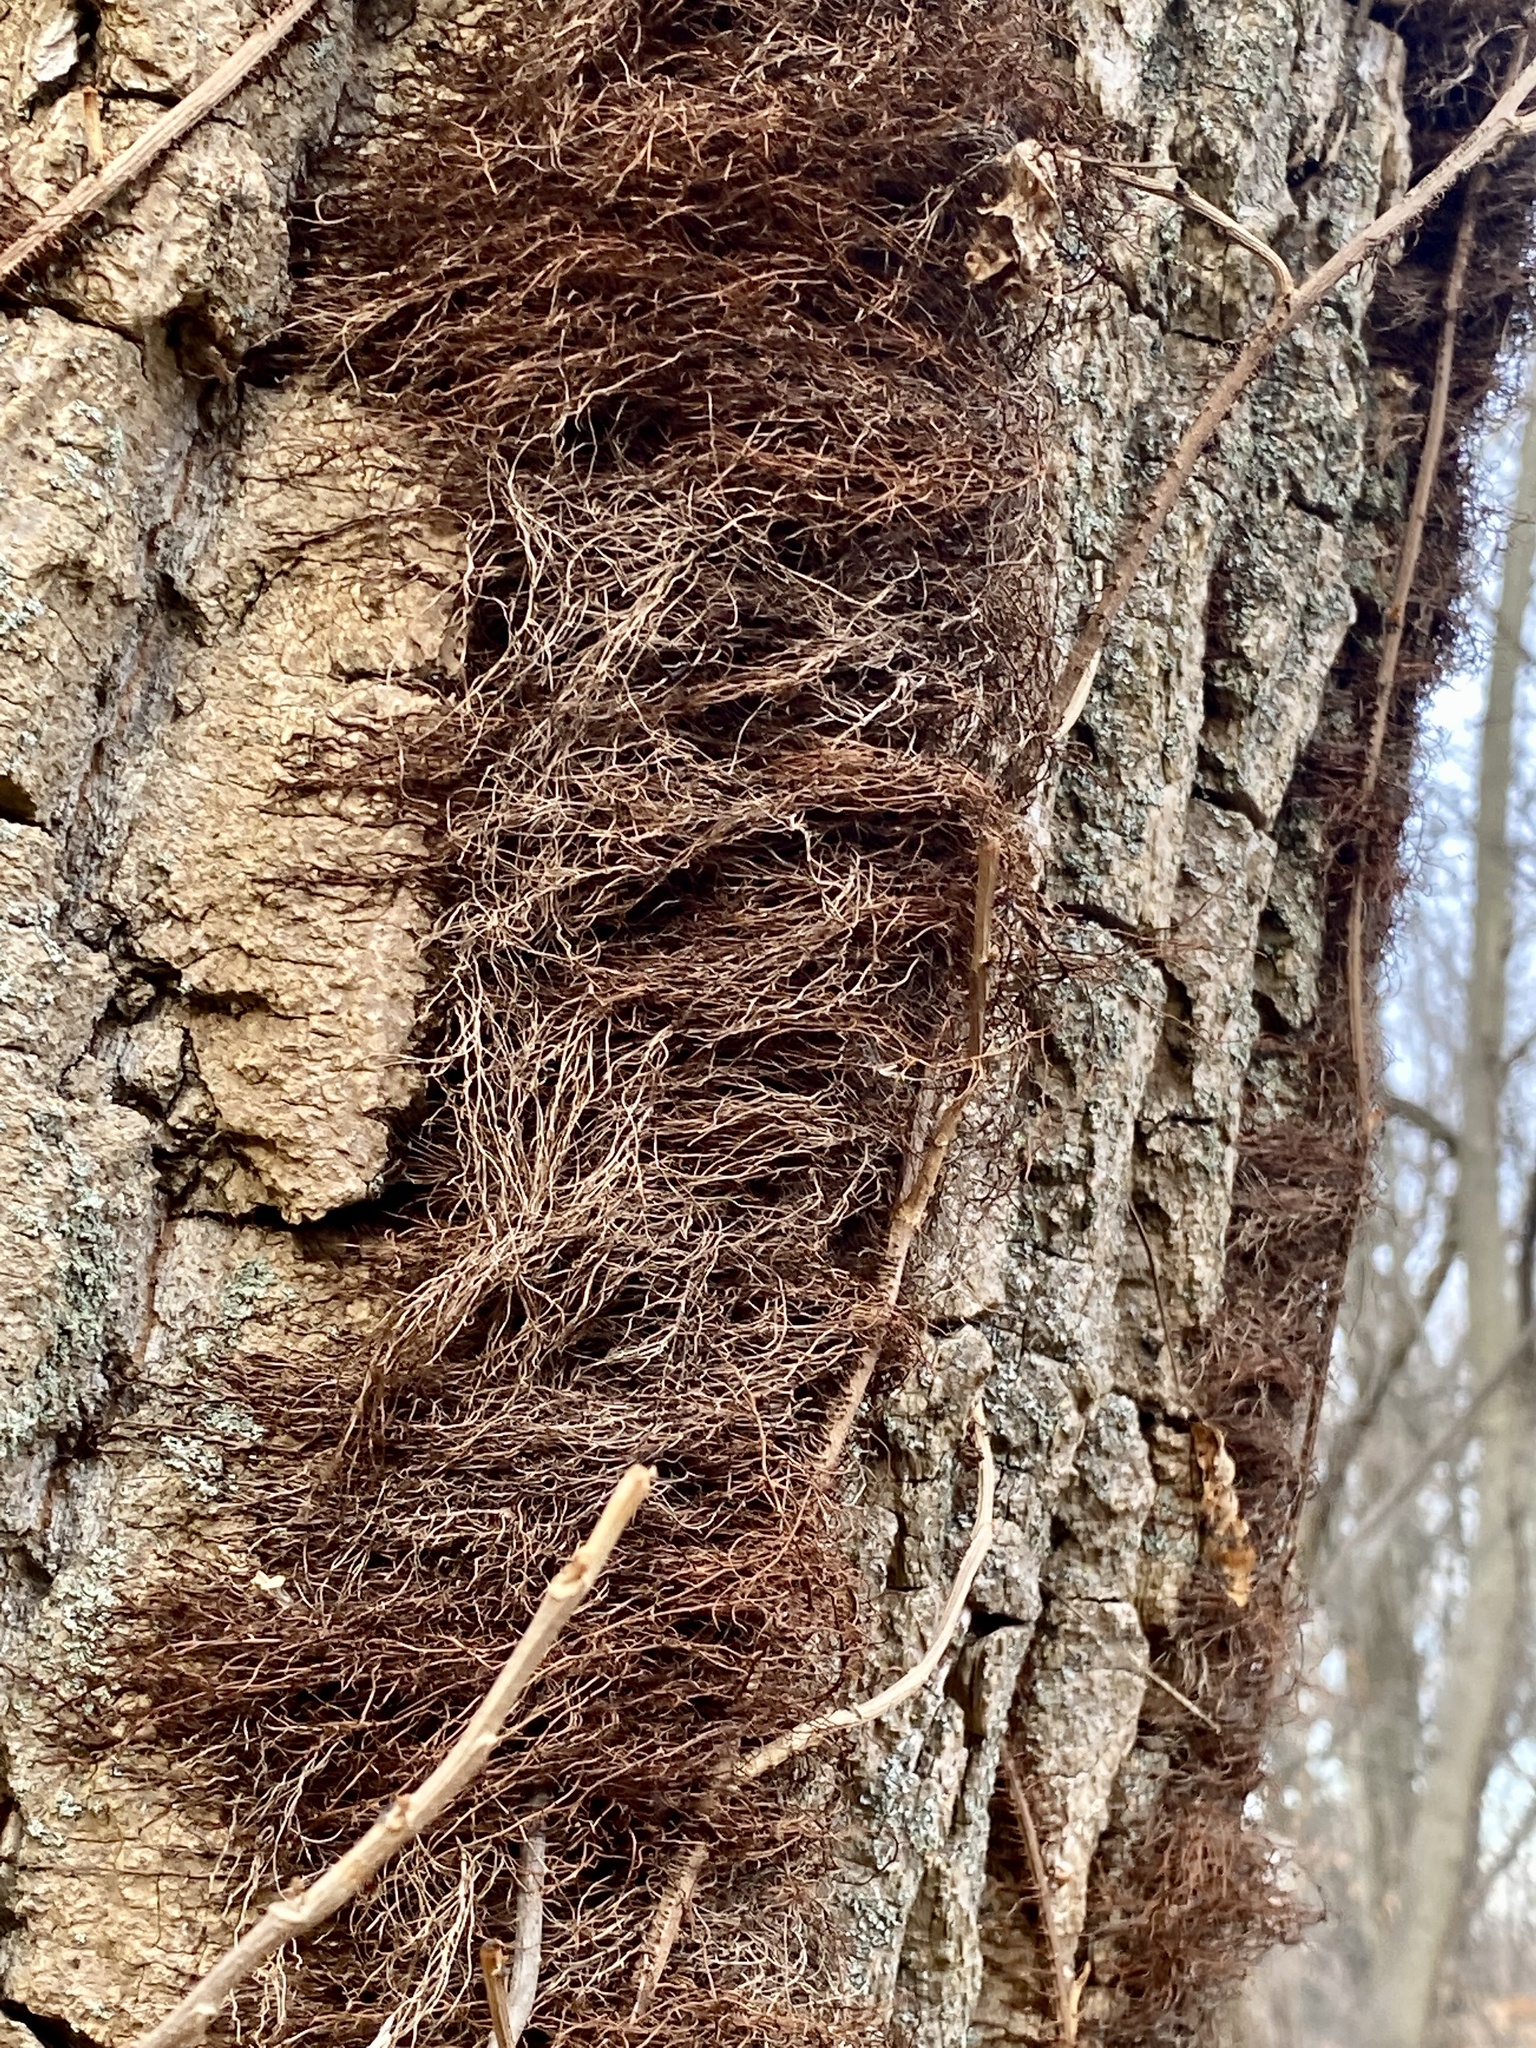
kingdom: Plantae
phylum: Tracheophyta
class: Magnoliopsida
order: Sapindales
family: Anacardiaceae
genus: Toxicodendron
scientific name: Toxicodendron radicans
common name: Poison ivy
